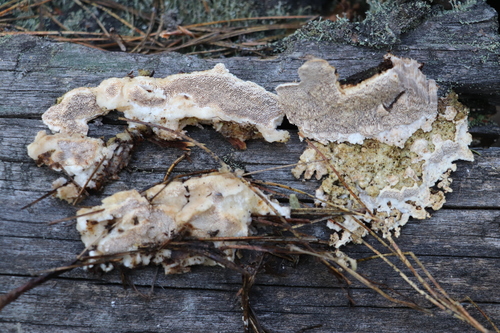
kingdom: Fungi
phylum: Basidiomycota
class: Agaricomycetes
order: Polyporales
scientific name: Polyporales
